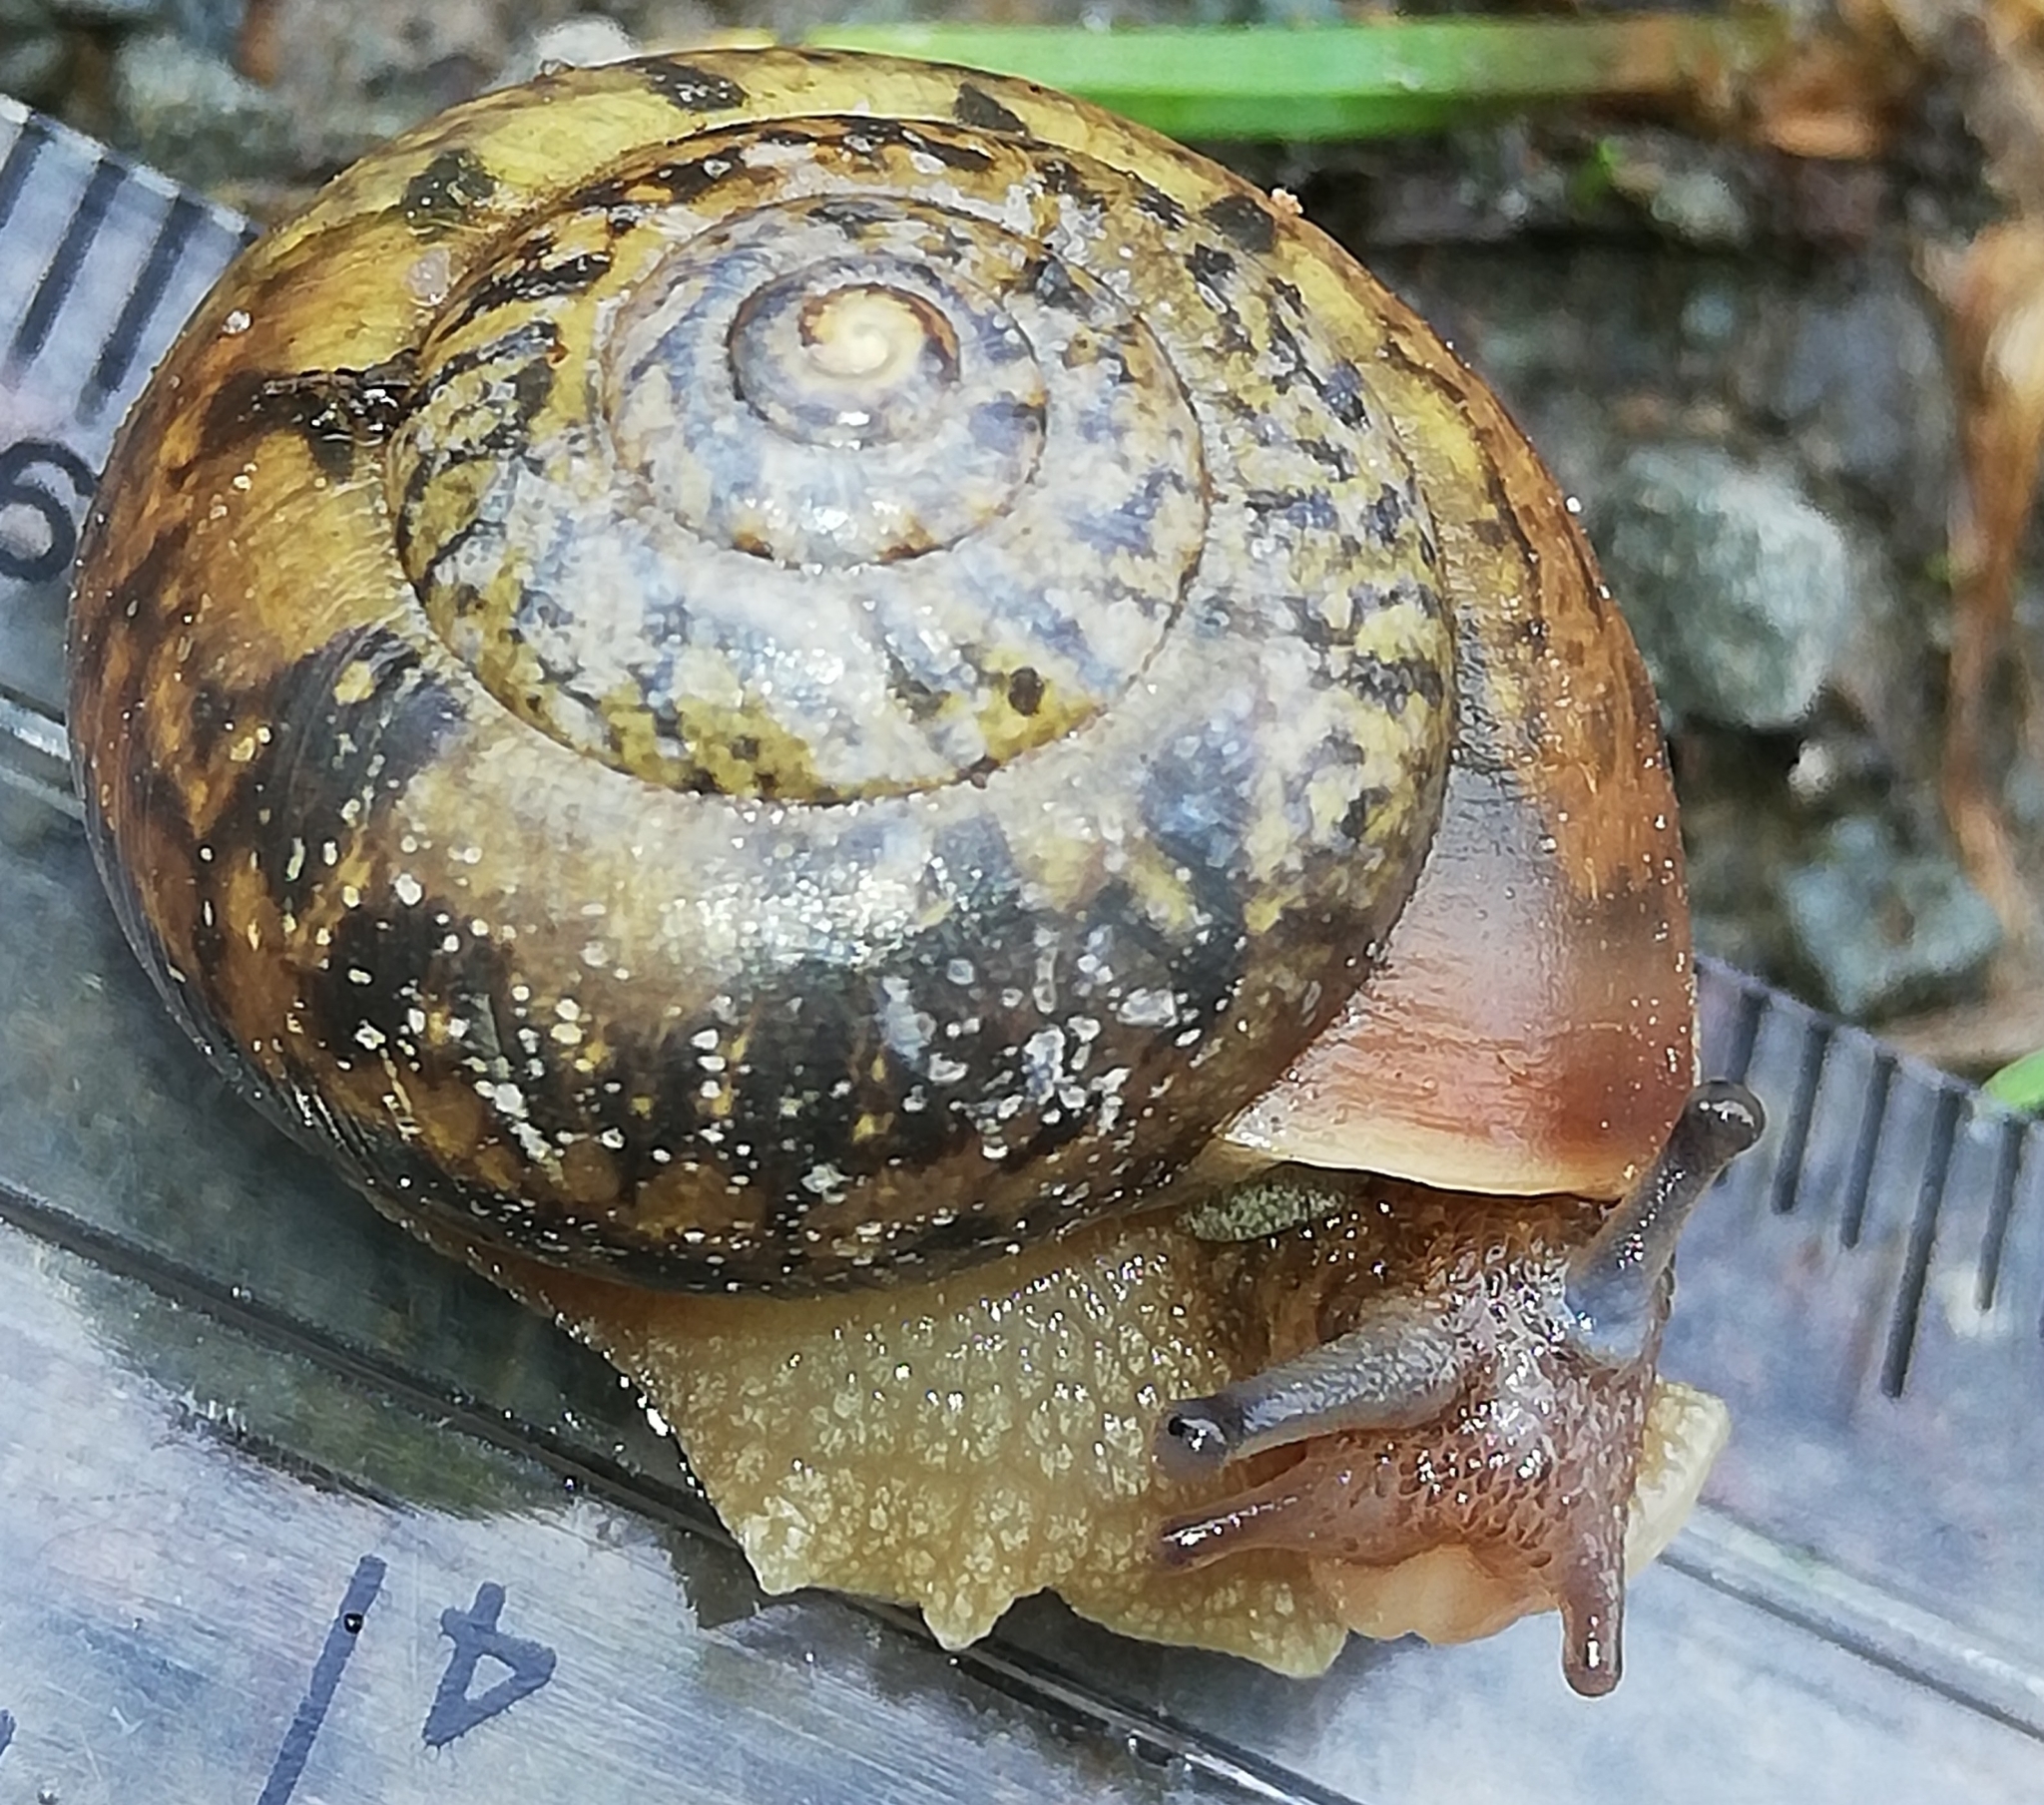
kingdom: Animalia
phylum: Mollusca
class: Gastropoda
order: Stylommatophora
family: Camaenidae
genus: Fruticicola
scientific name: Fruticicola fruticum
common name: Bush snail
